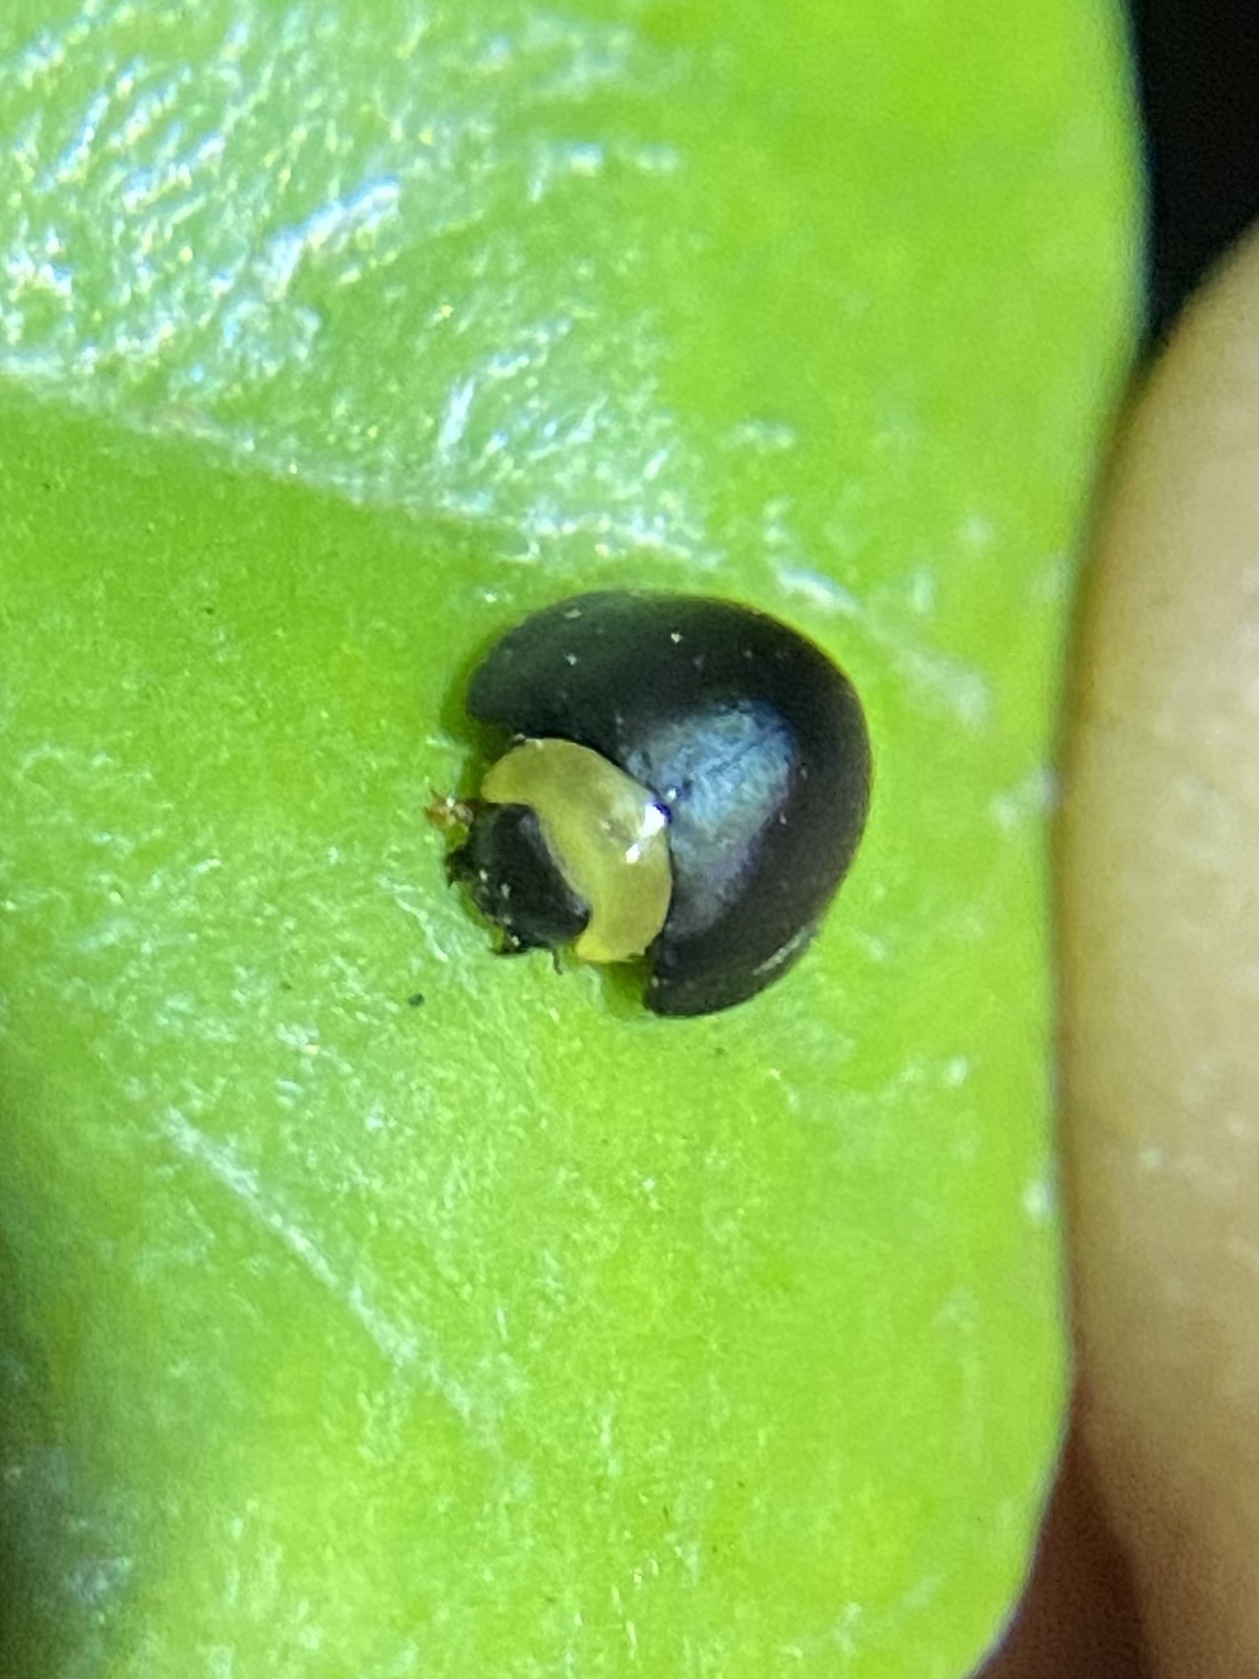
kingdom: Animalia
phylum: Arthropoda
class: Insecta
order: Coleoptera
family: Coccinellidae
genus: Egius
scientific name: Egius platycephalus
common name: Ladybird beetle
